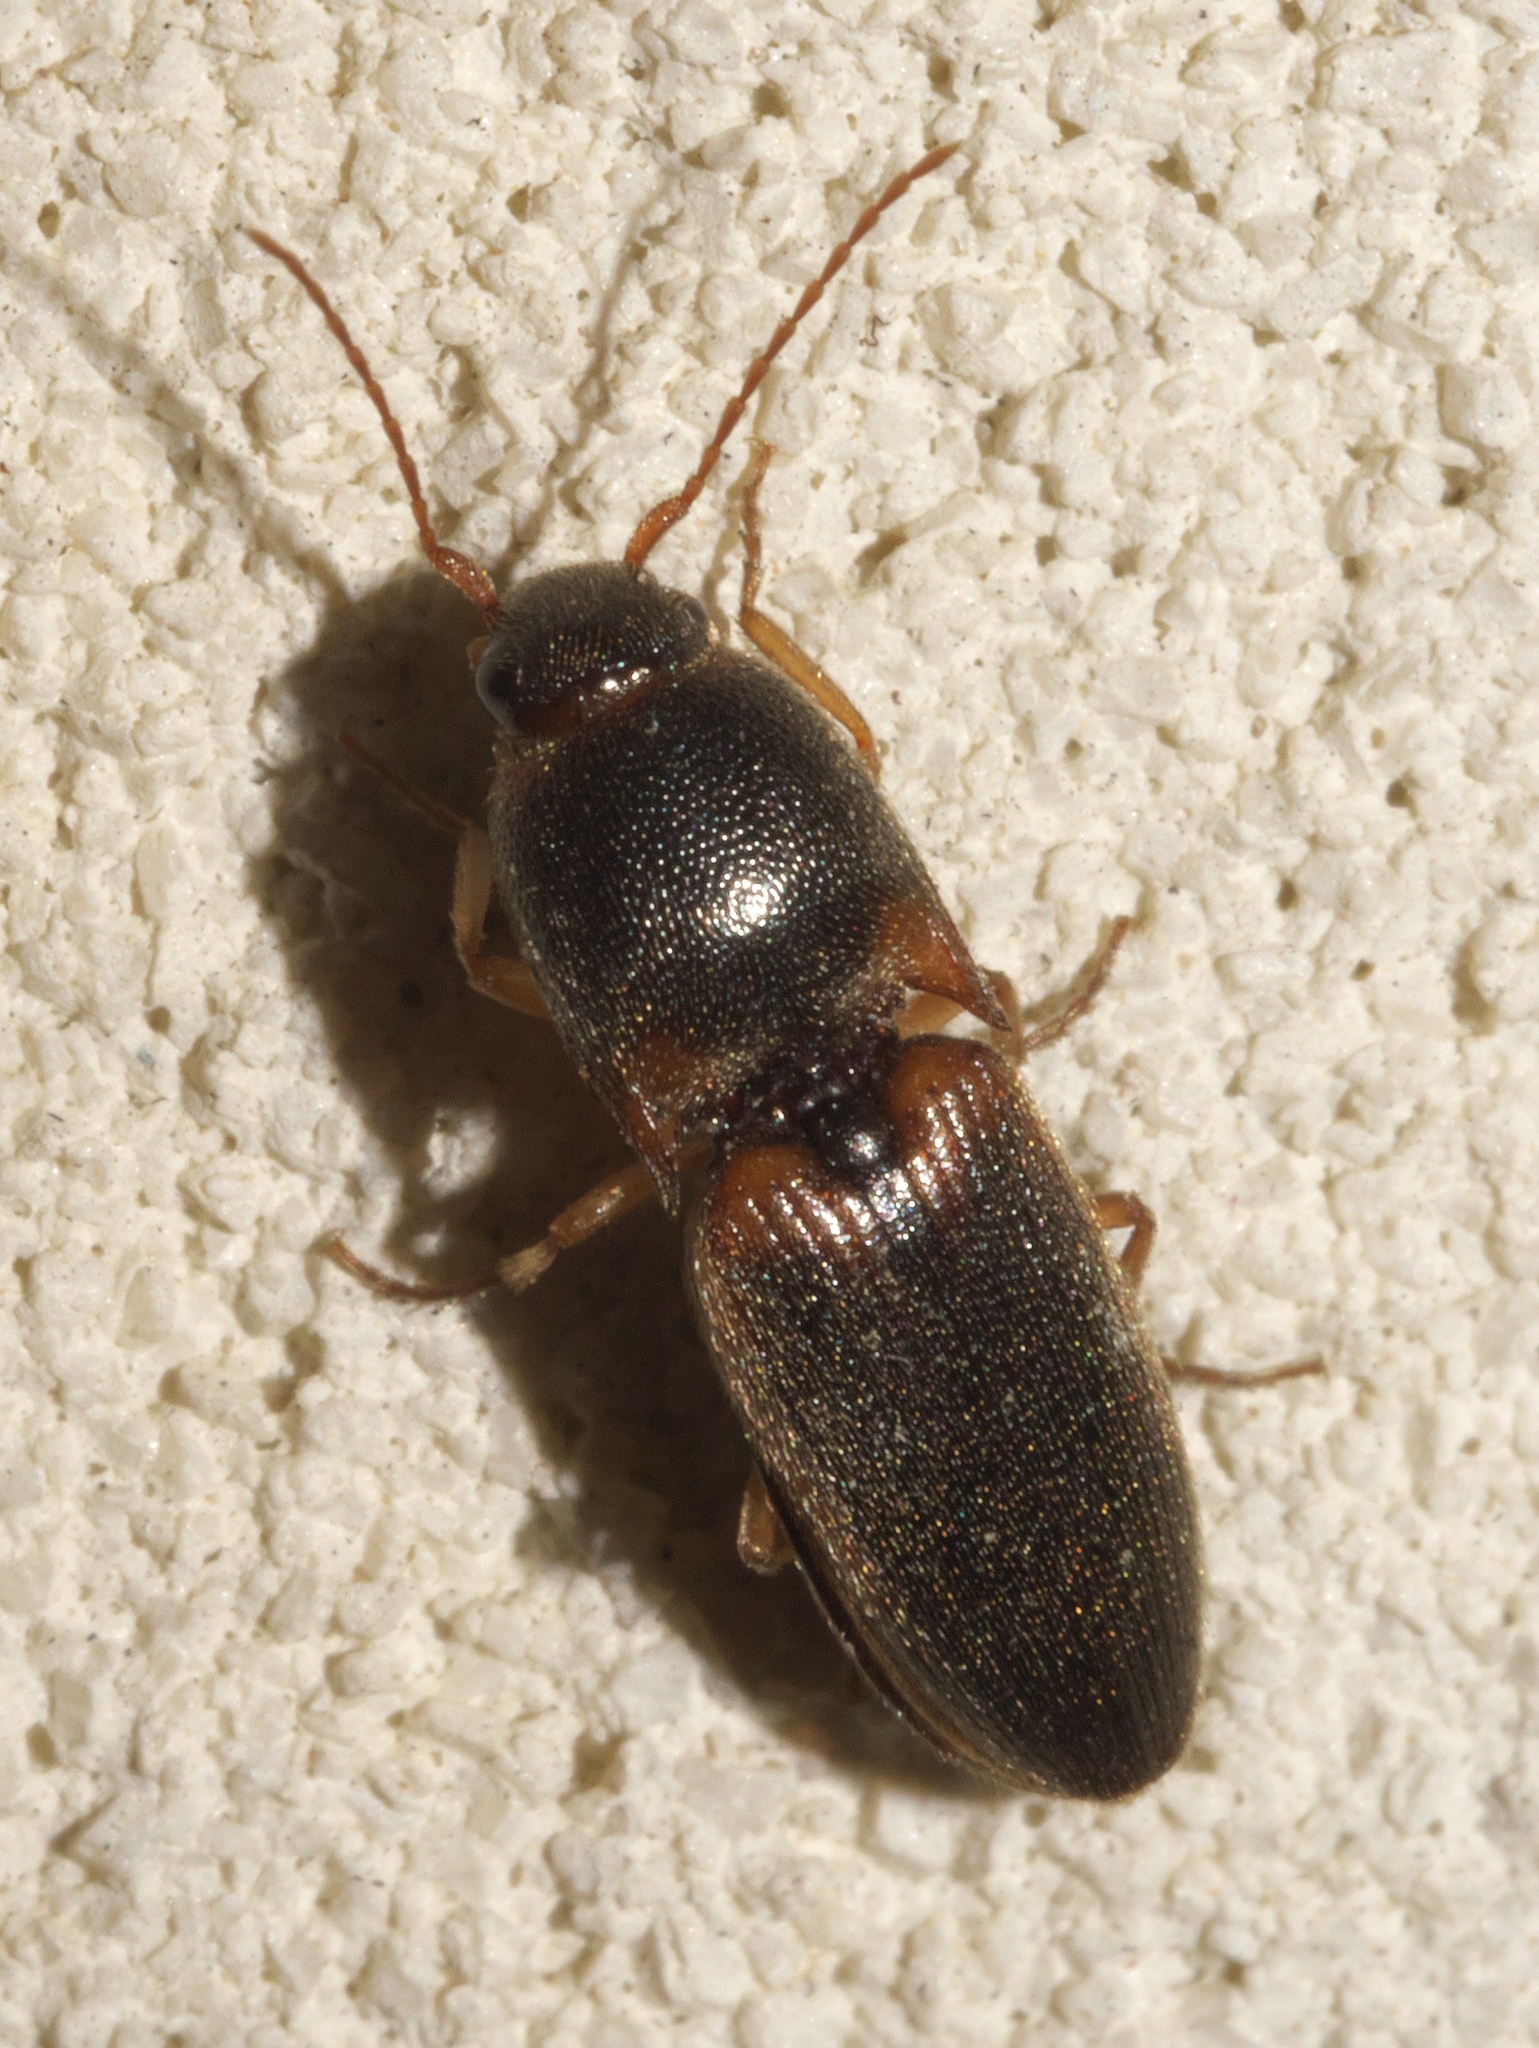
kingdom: Animalia
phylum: Arthropoda
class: Insecta
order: Coleoptera
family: Elateridae
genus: Aeolus
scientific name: Aeolus
